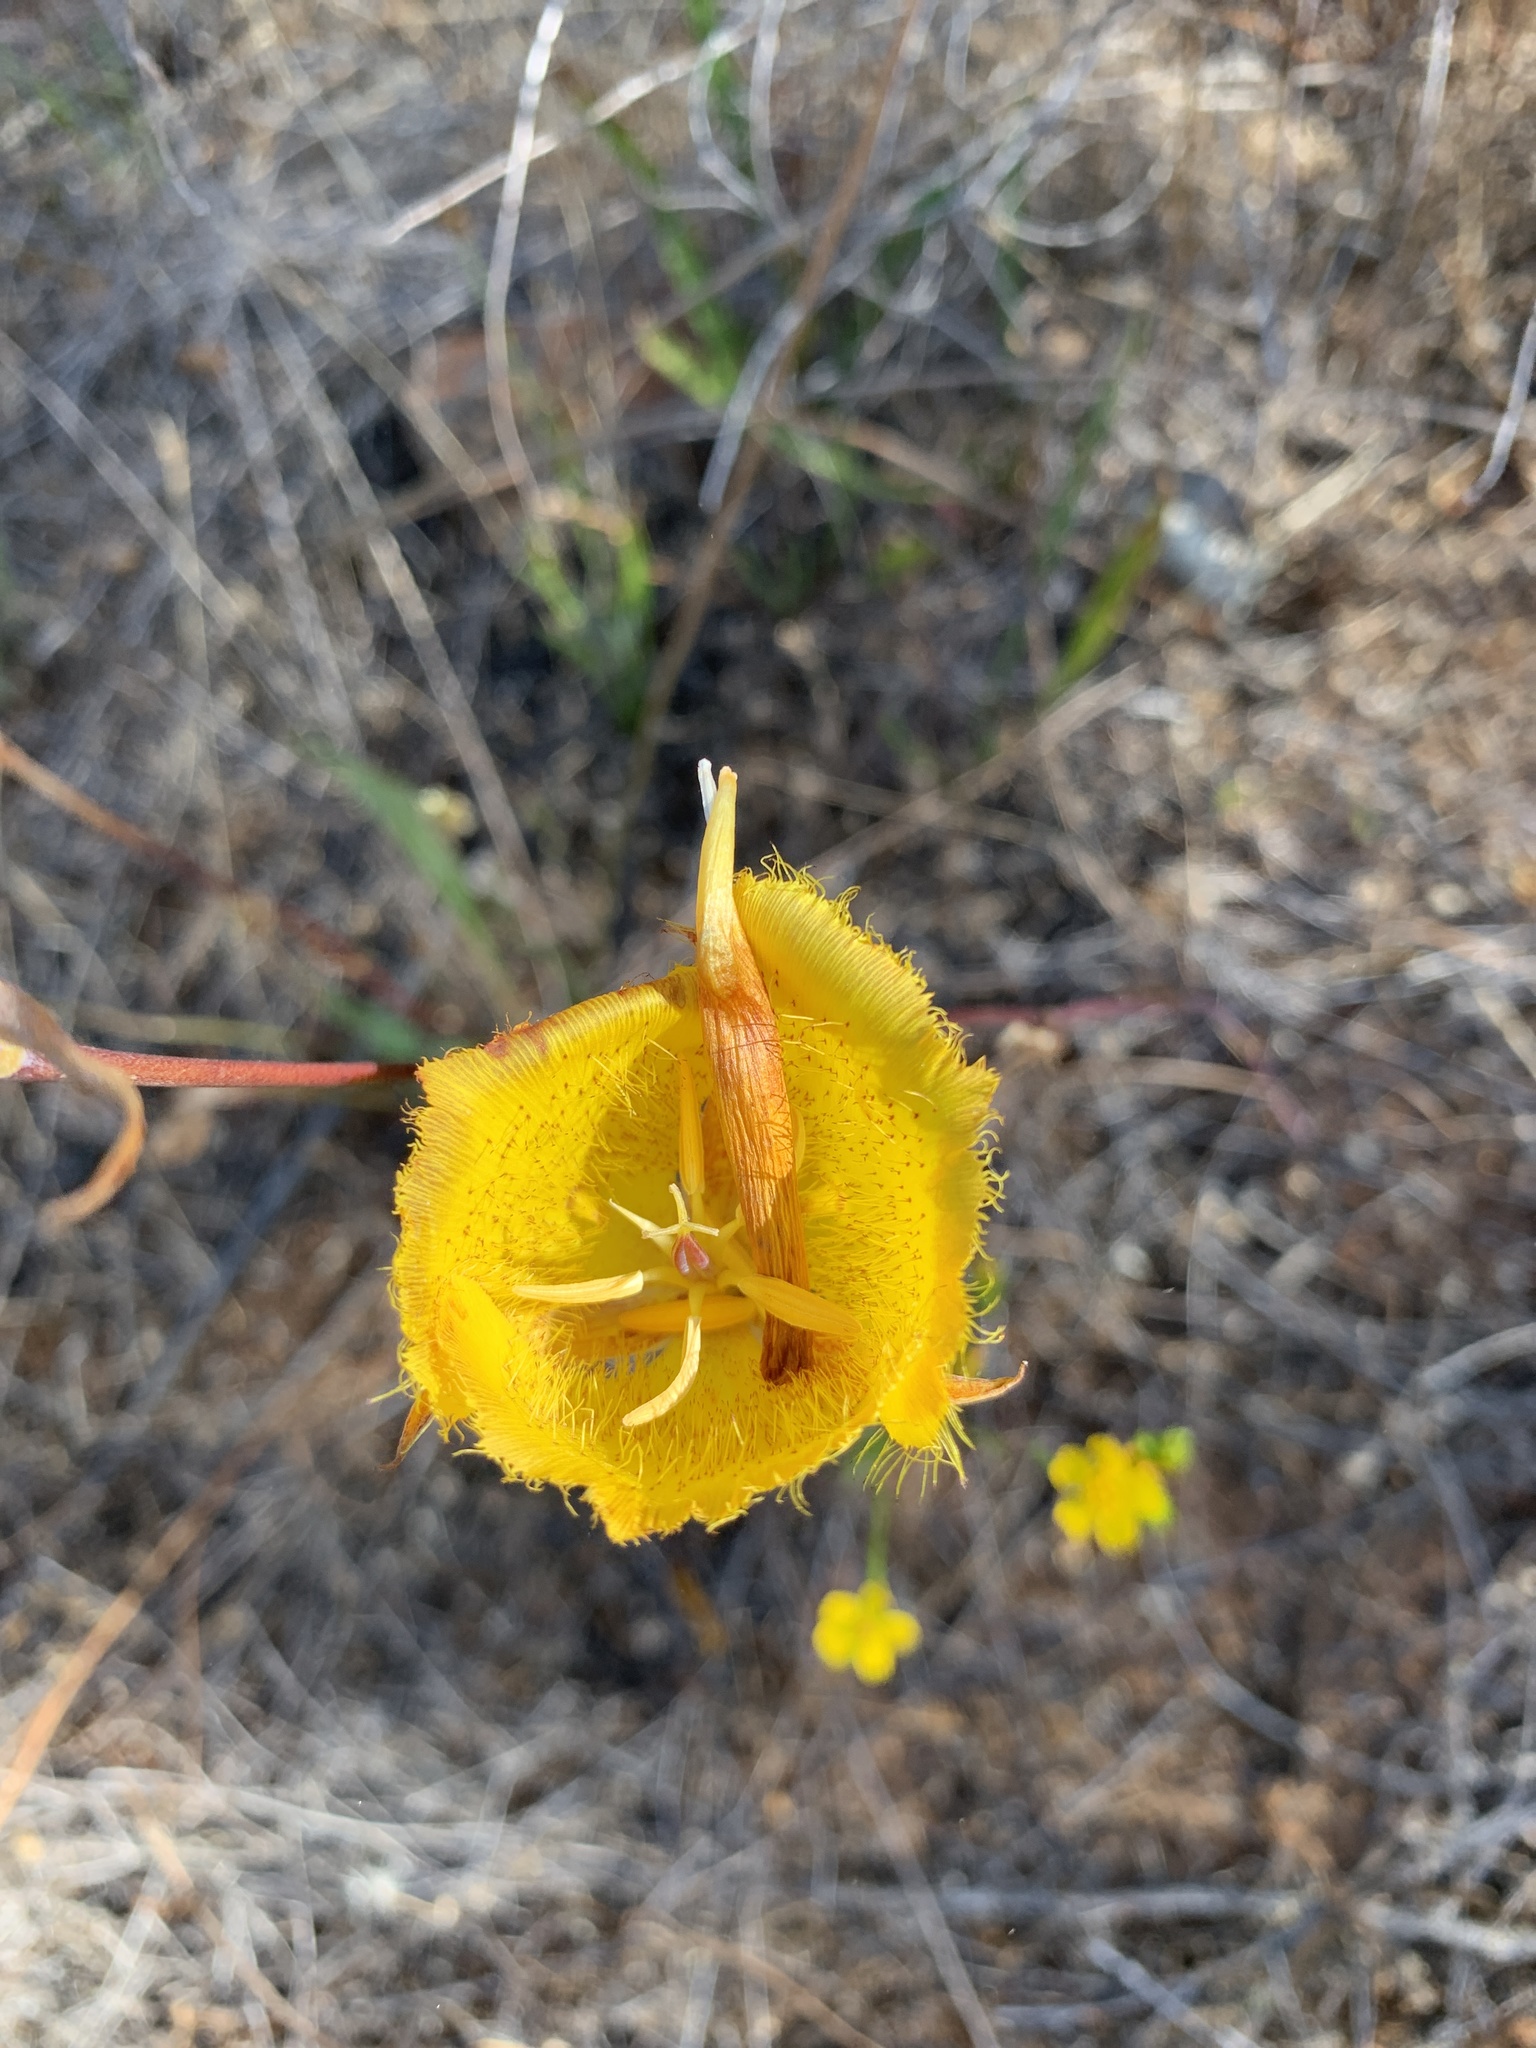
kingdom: Plantae
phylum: Tracheophyta
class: Liliopsida
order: Liliales
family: Liliaceae
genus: Calochortus
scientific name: Calochortus weedii
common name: Weed's mariposa-lily
